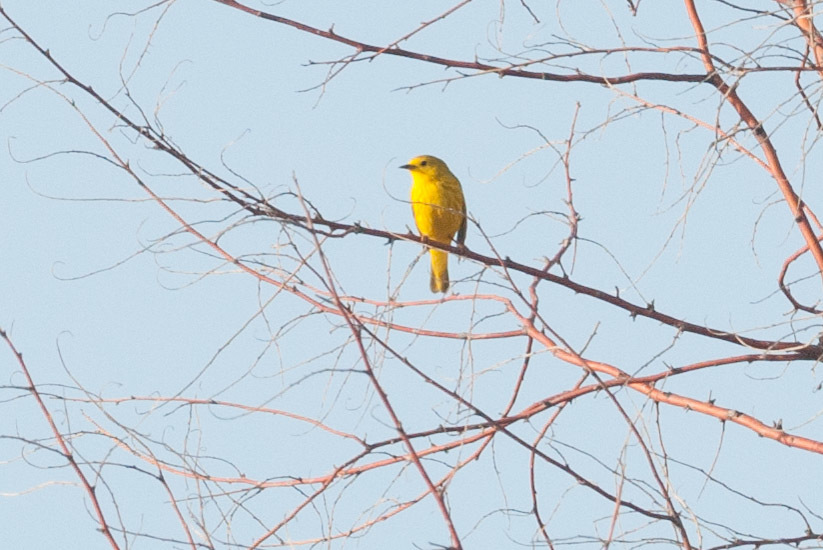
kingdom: Animalia
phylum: Chordata
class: Aves
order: Passeriformes
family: Parulidae
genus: Setophaga
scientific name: Setophaga petechia
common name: Yellow warbler
